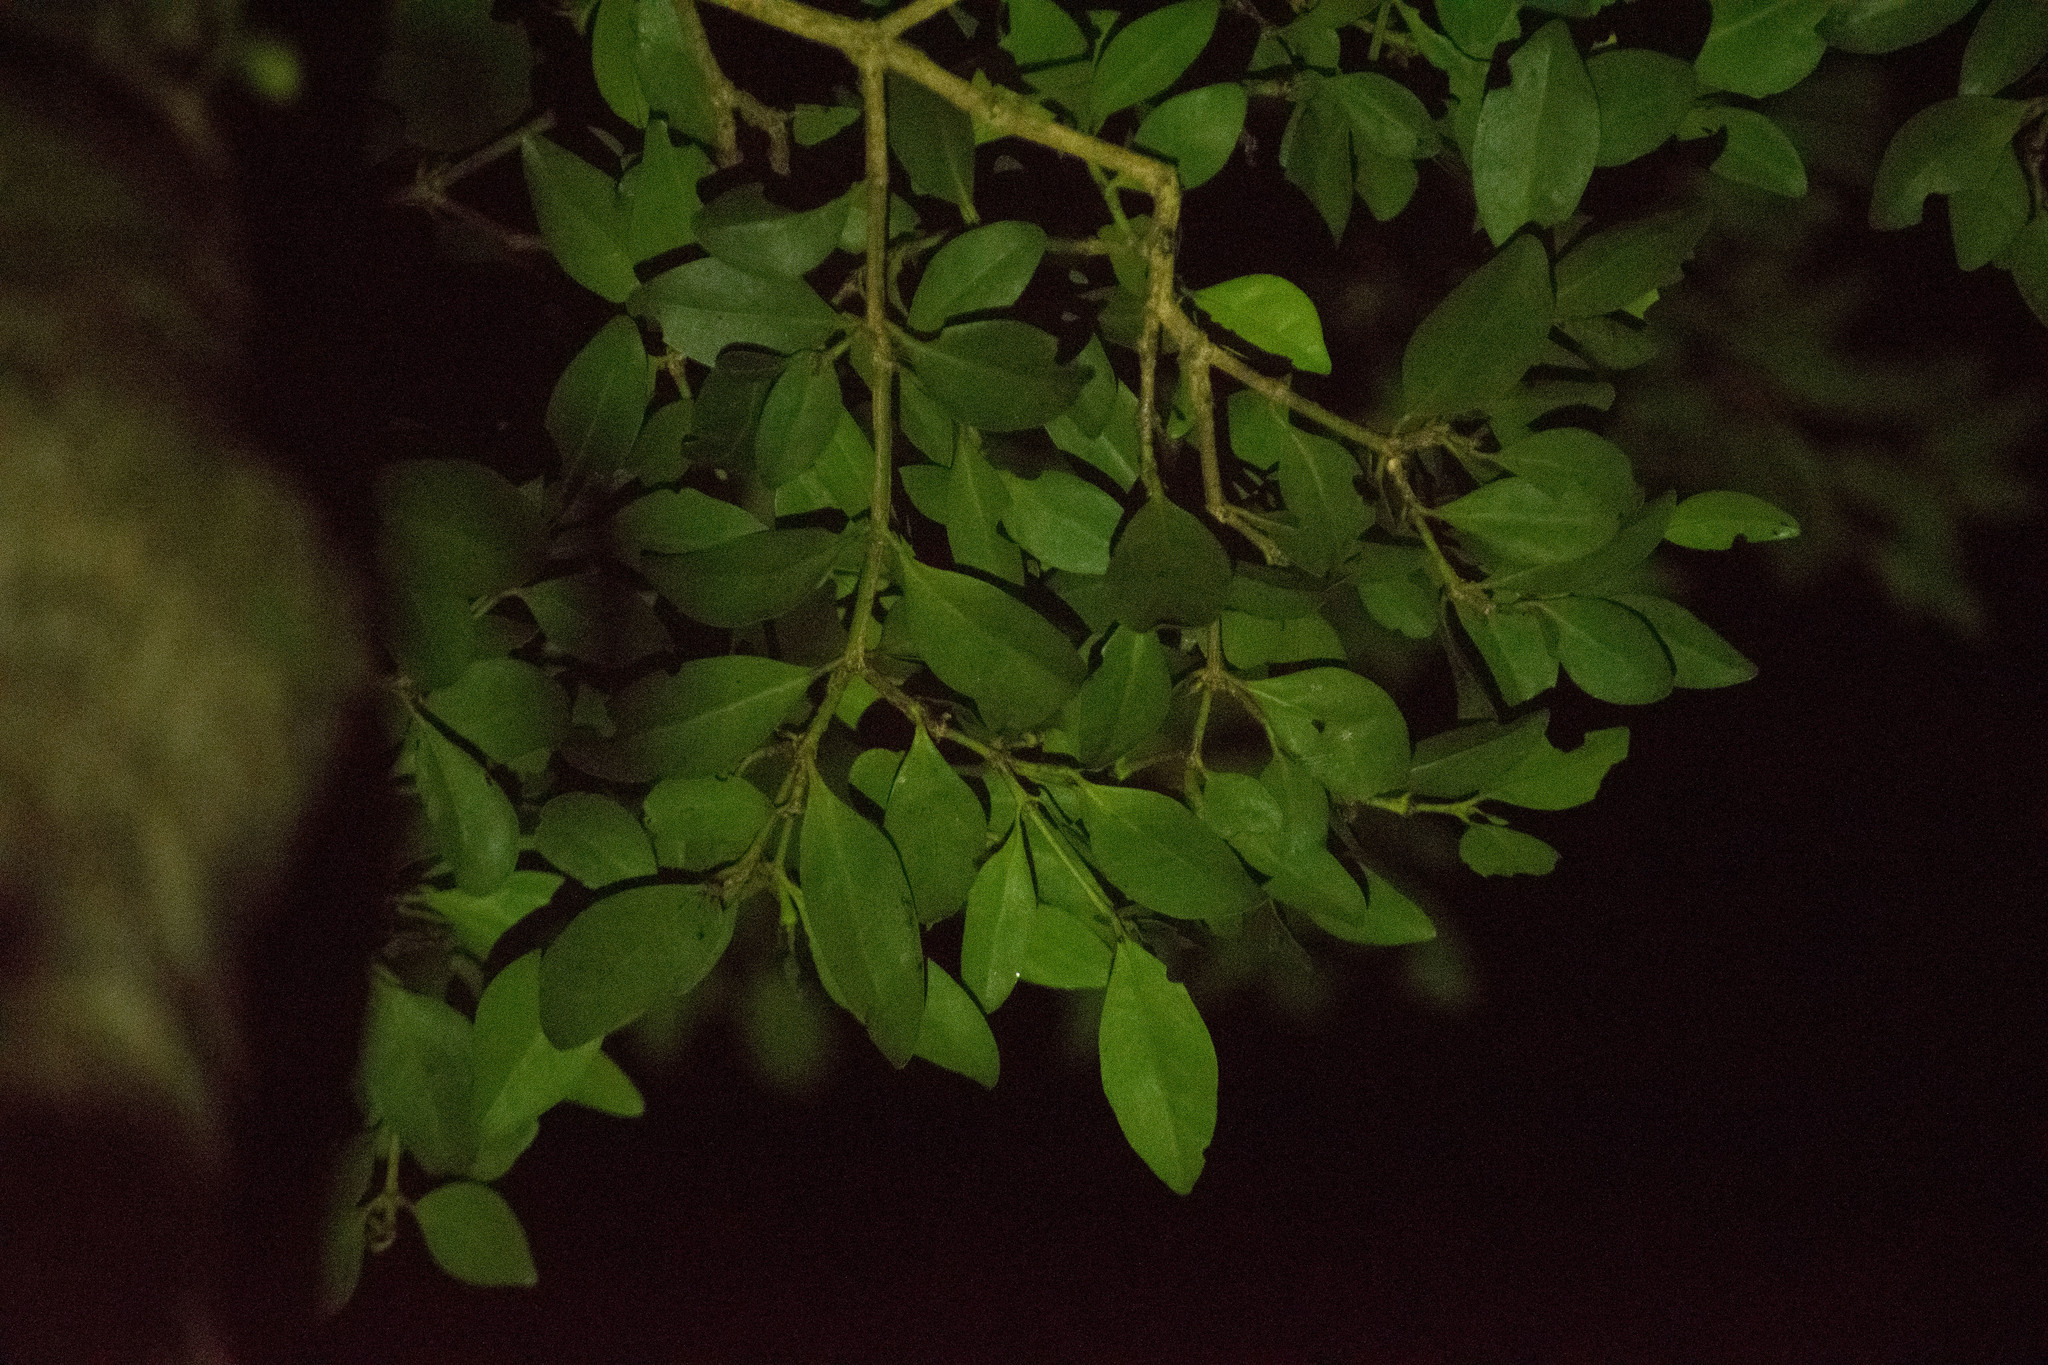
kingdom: Plantae
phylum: Tracheophyta
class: Magnoliopsida
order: Gentianales
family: Rubiaceae
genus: Psydrax
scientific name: Psydrax odoratus
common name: Alahe'e
